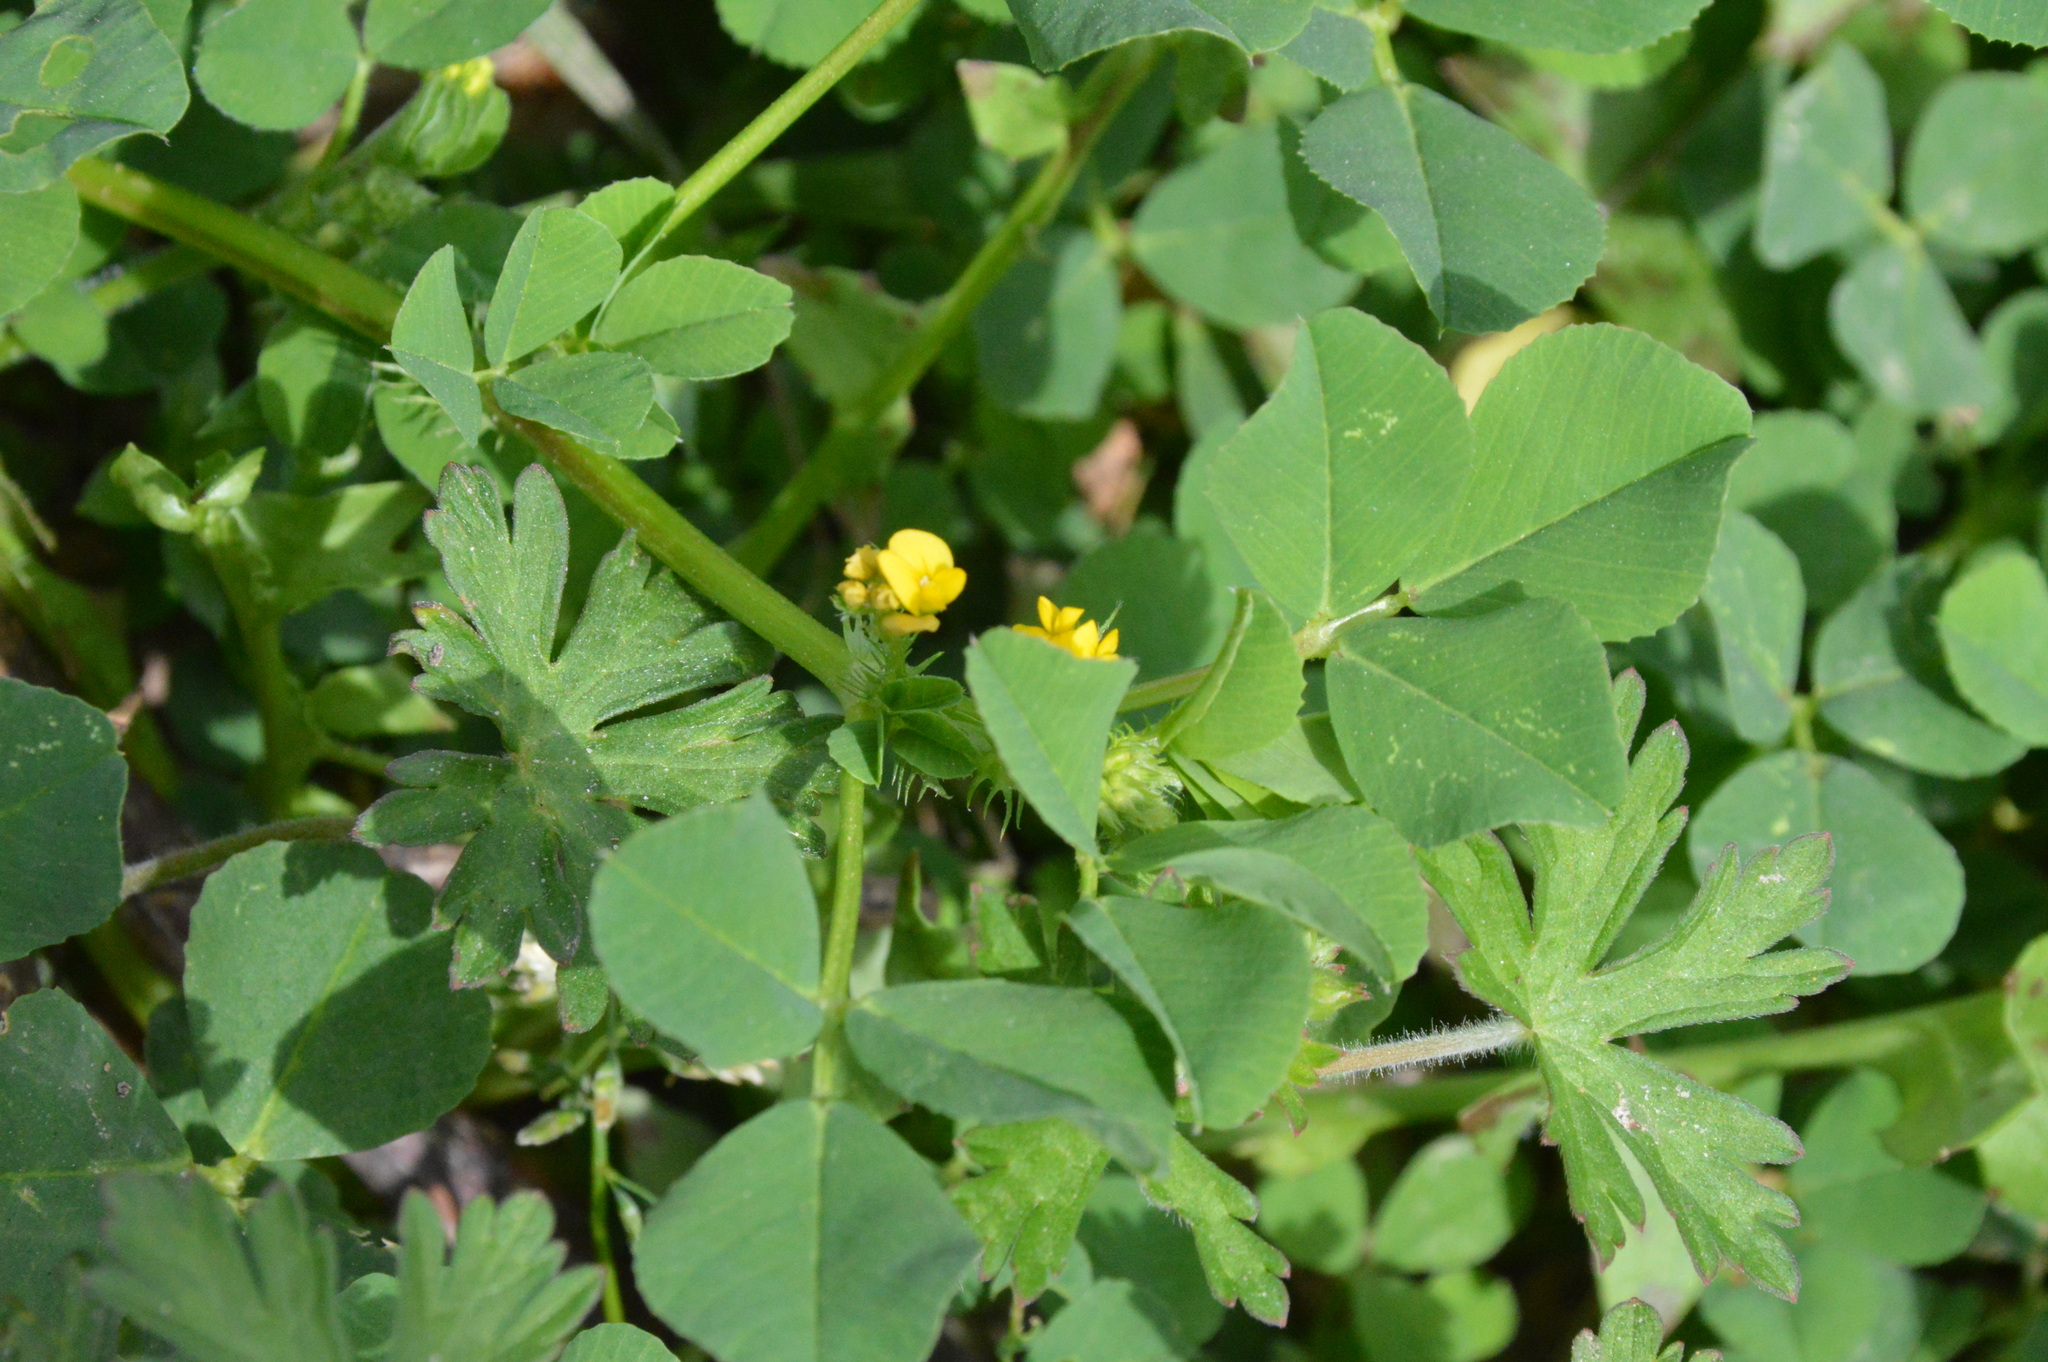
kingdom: Plantae
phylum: Tracheophyta
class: Magnoliopsida
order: Fabales
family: Fabaceae
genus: Medicago
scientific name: Medicago polymorpha
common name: Burclover
